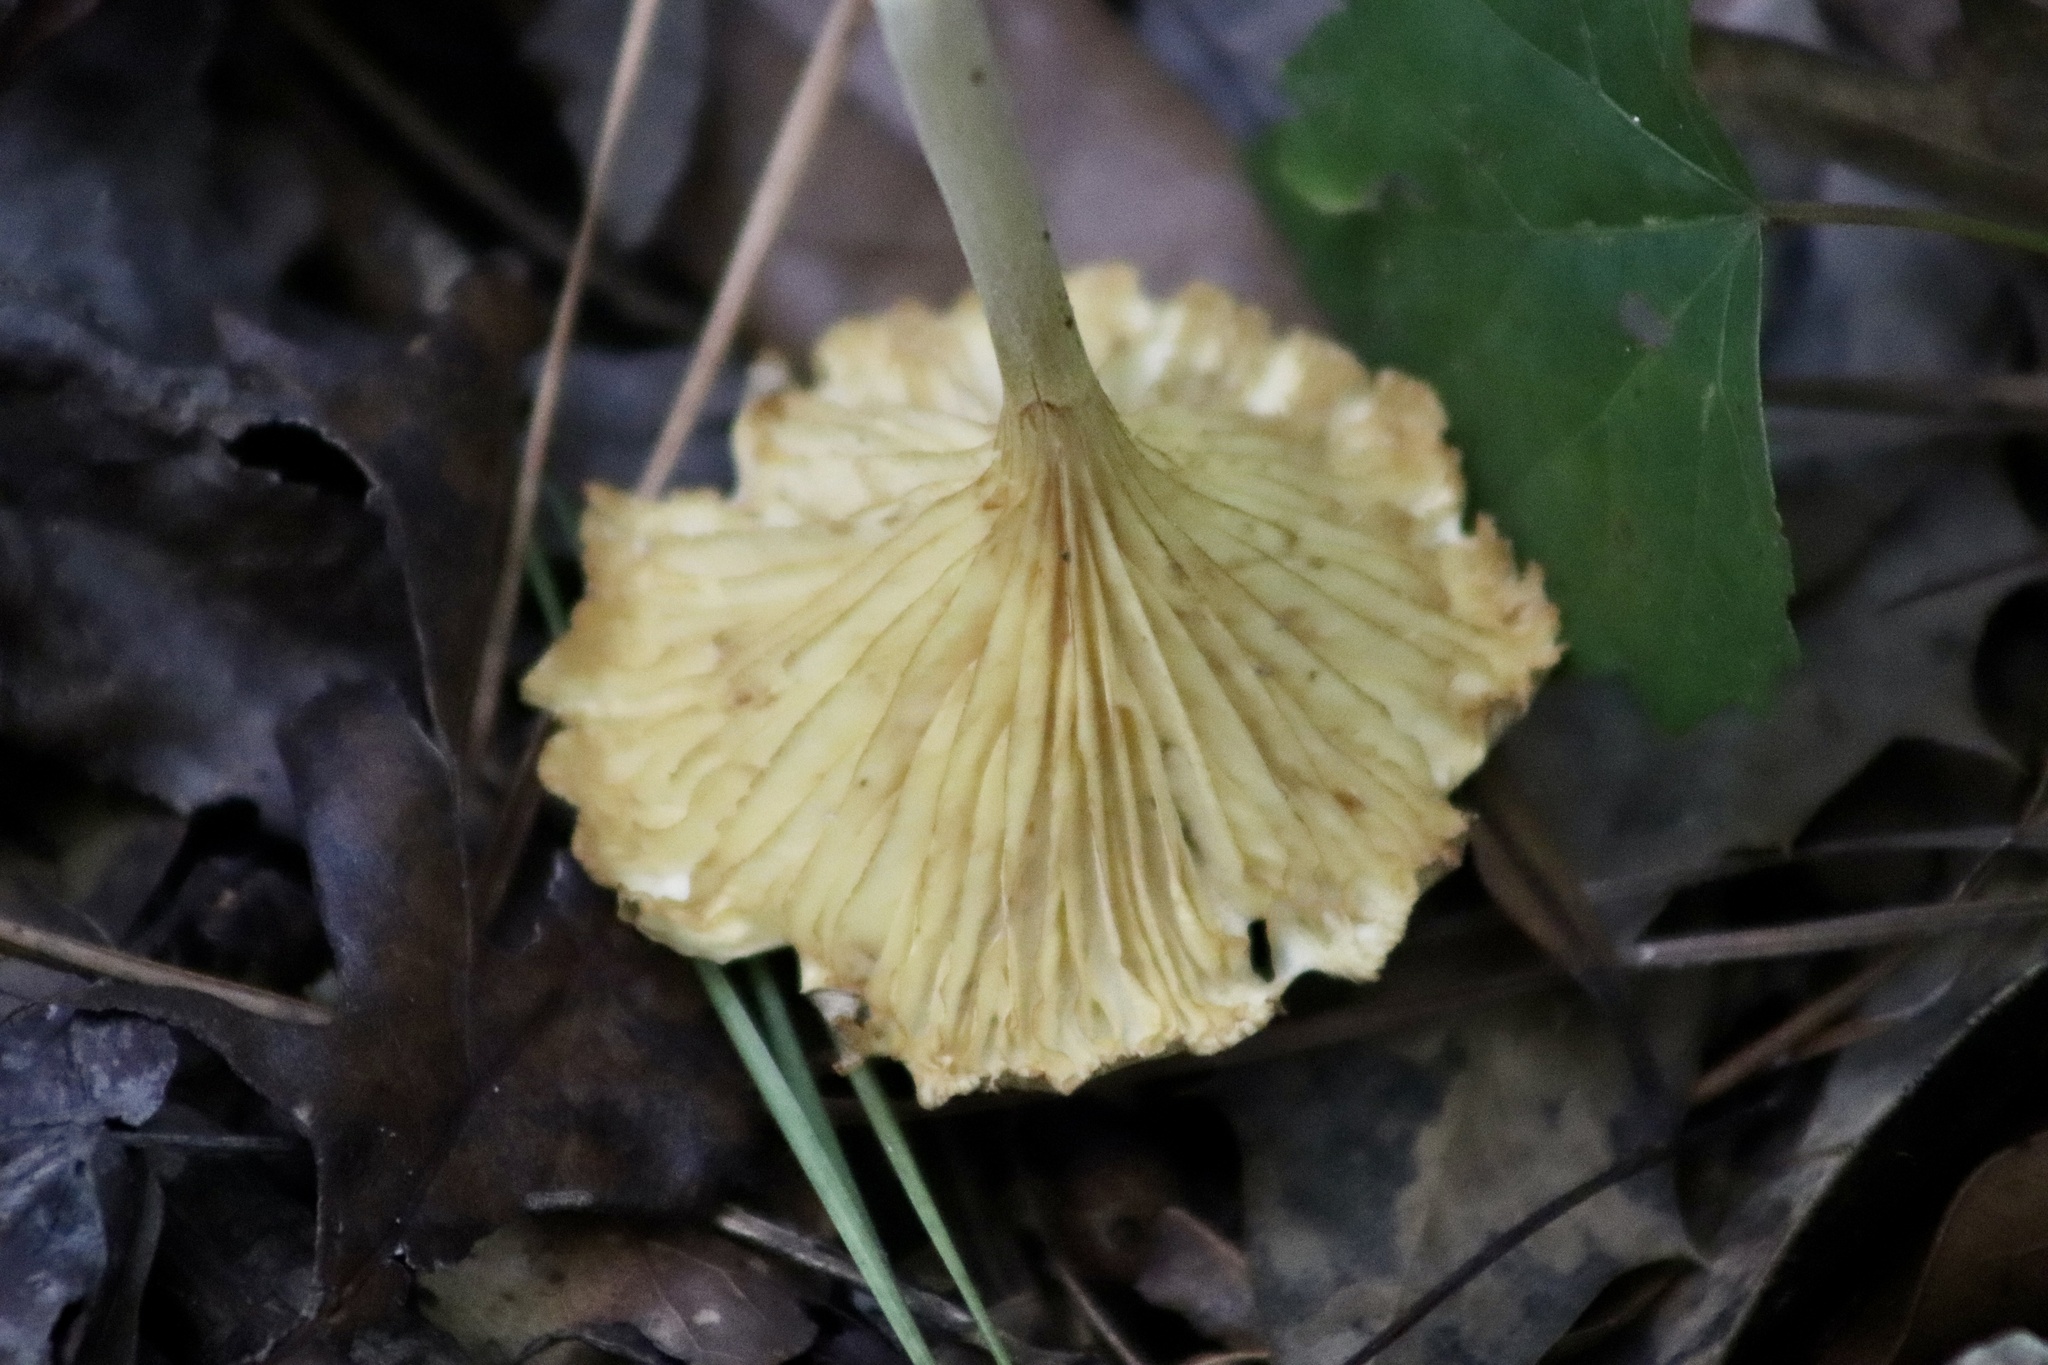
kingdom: Fungi
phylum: Basidiomycota
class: Agaricomycetes
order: Agaricales
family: Marasmiaceae
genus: Gerronema
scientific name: Gerronema strombodes
